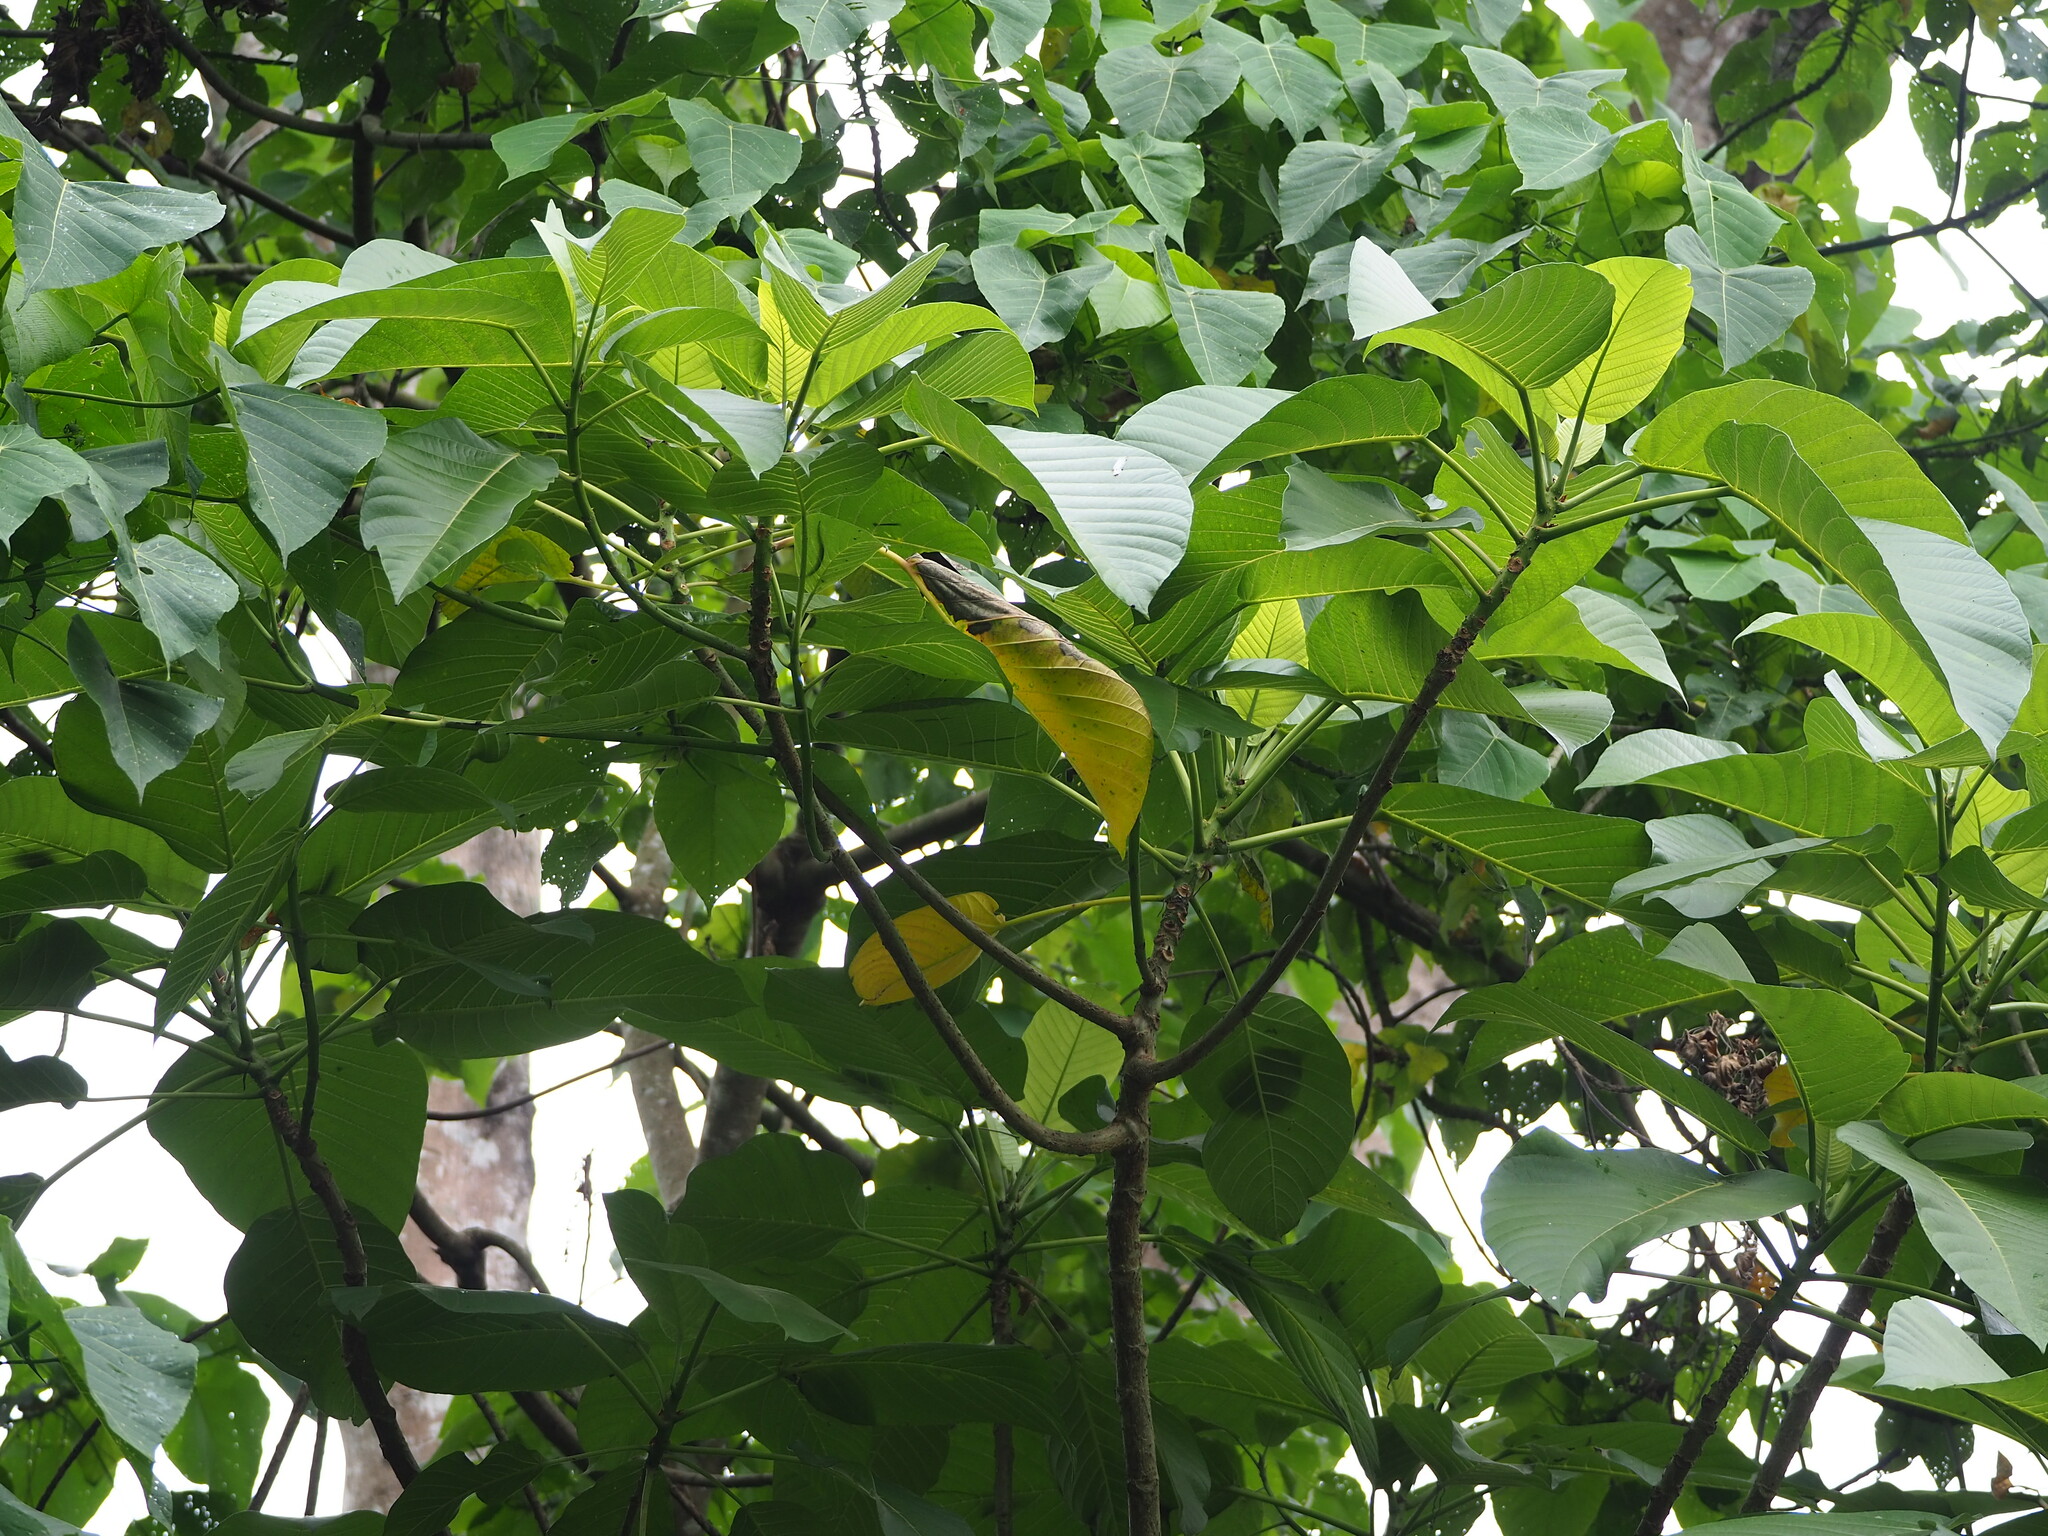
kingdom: Plantae
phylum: Tracheophyta
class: Magnoliopsida
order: Rosales
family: Urticaceae
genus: Dendrocnide
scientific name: Dendrocnide meyeniana
